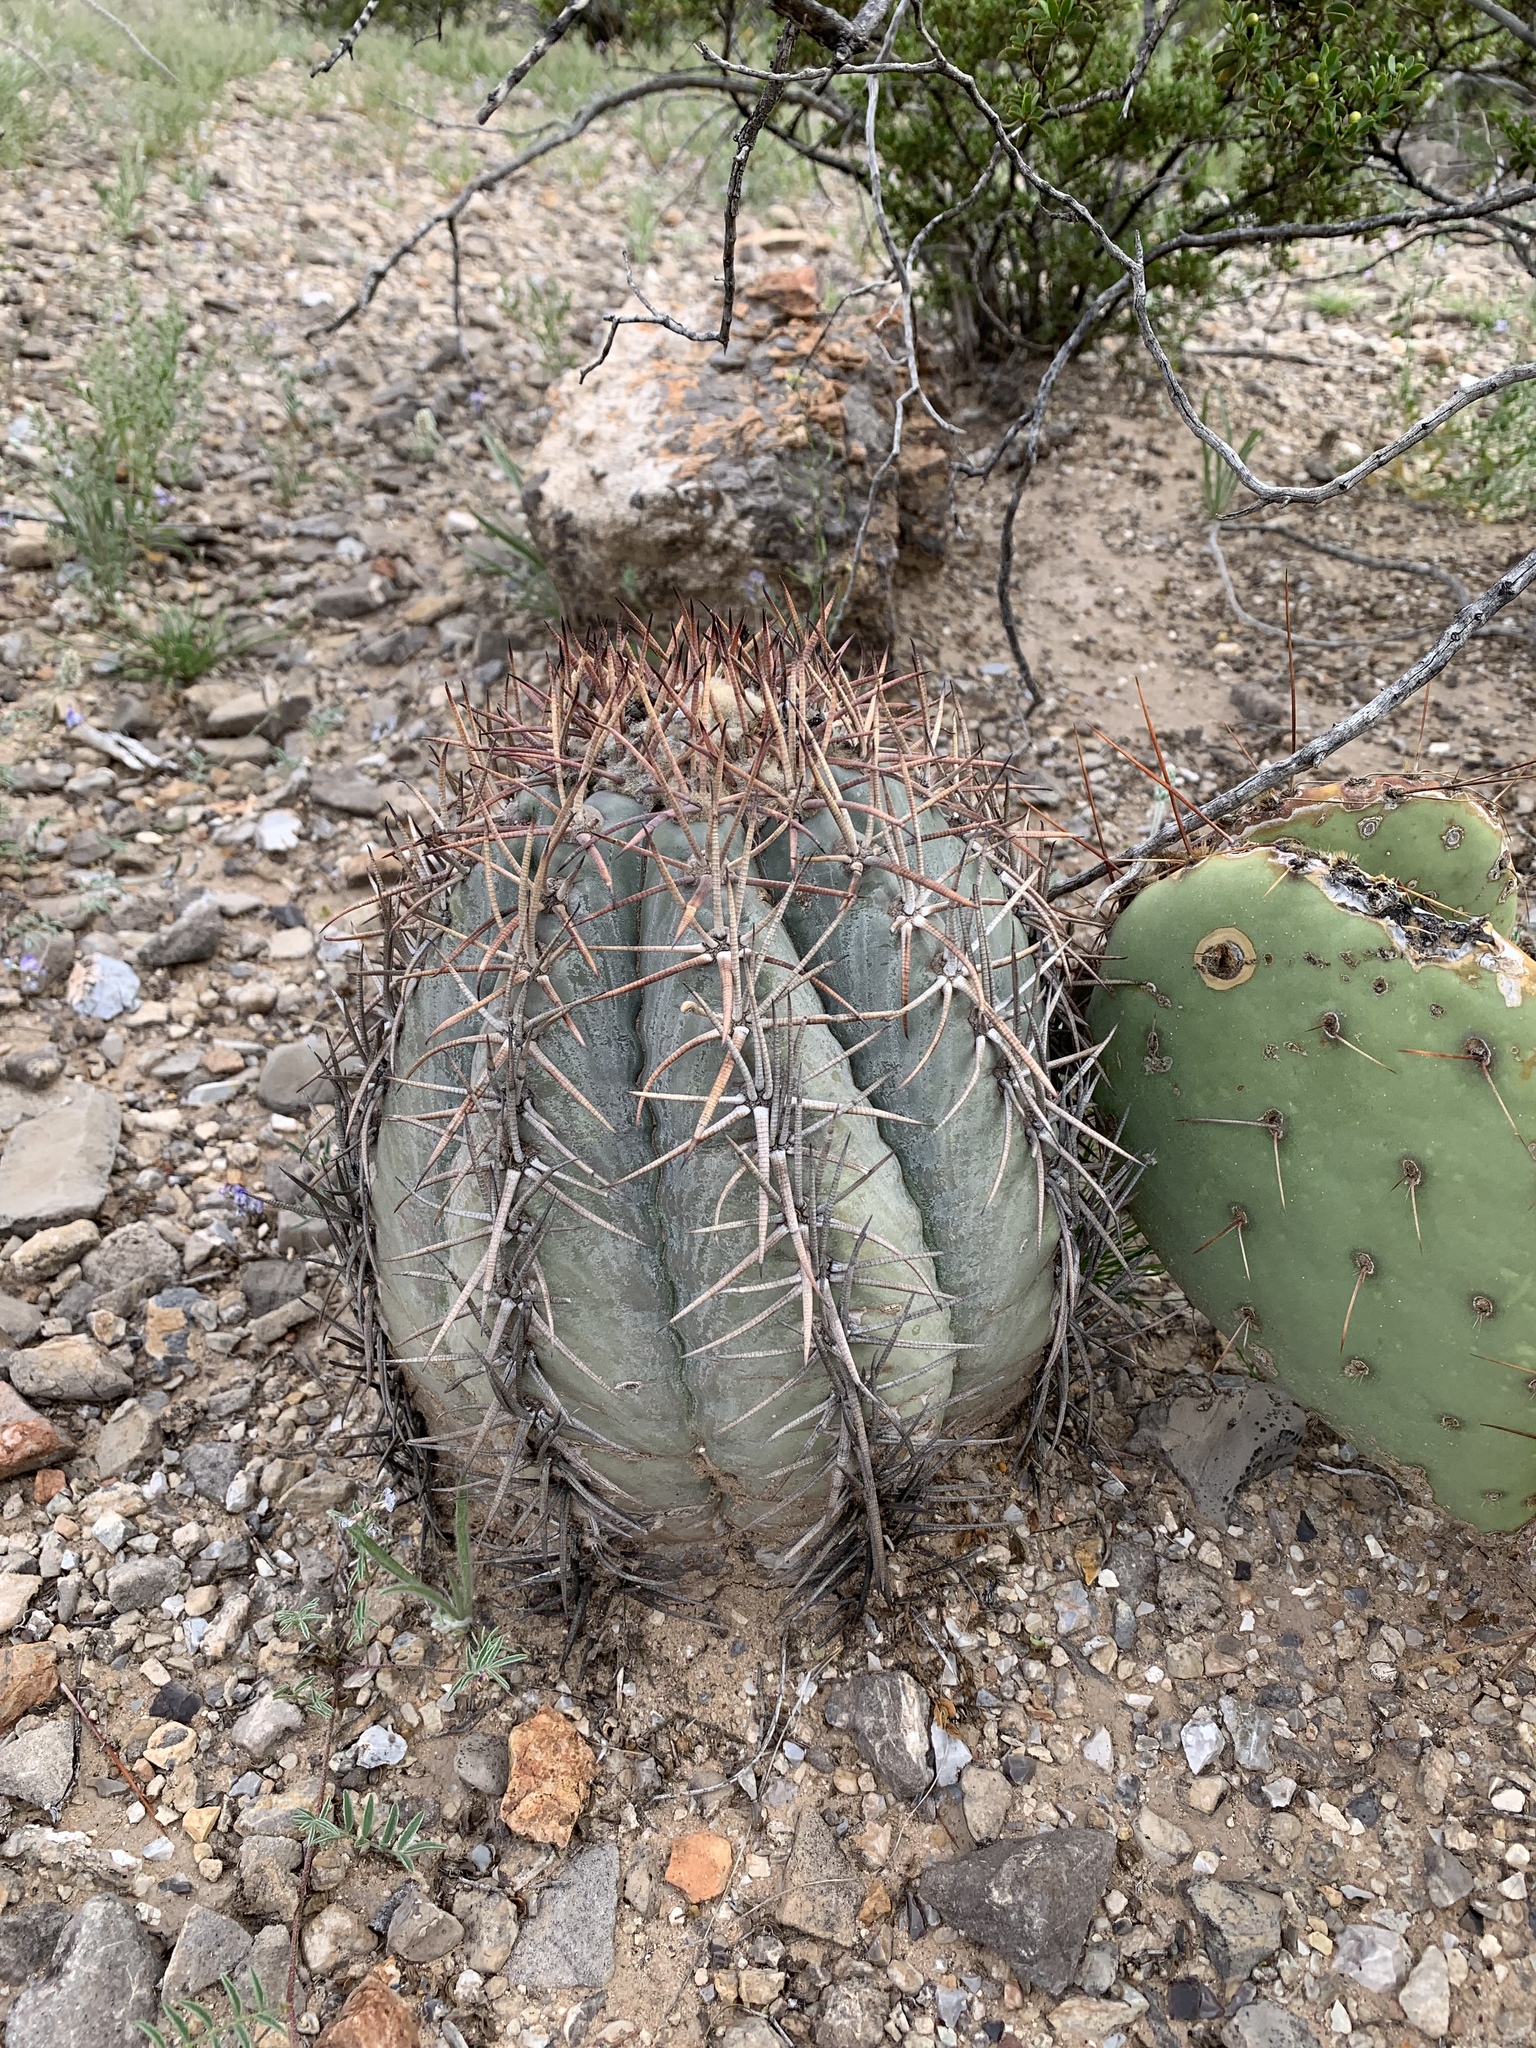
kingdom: Plantae
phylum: Tracheophyta
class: Magnoliopsida
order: Caryophyllales
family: Cactaceae
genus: Echinocactus
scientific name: Echinocactus horizonthalonius
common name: Devilshead
